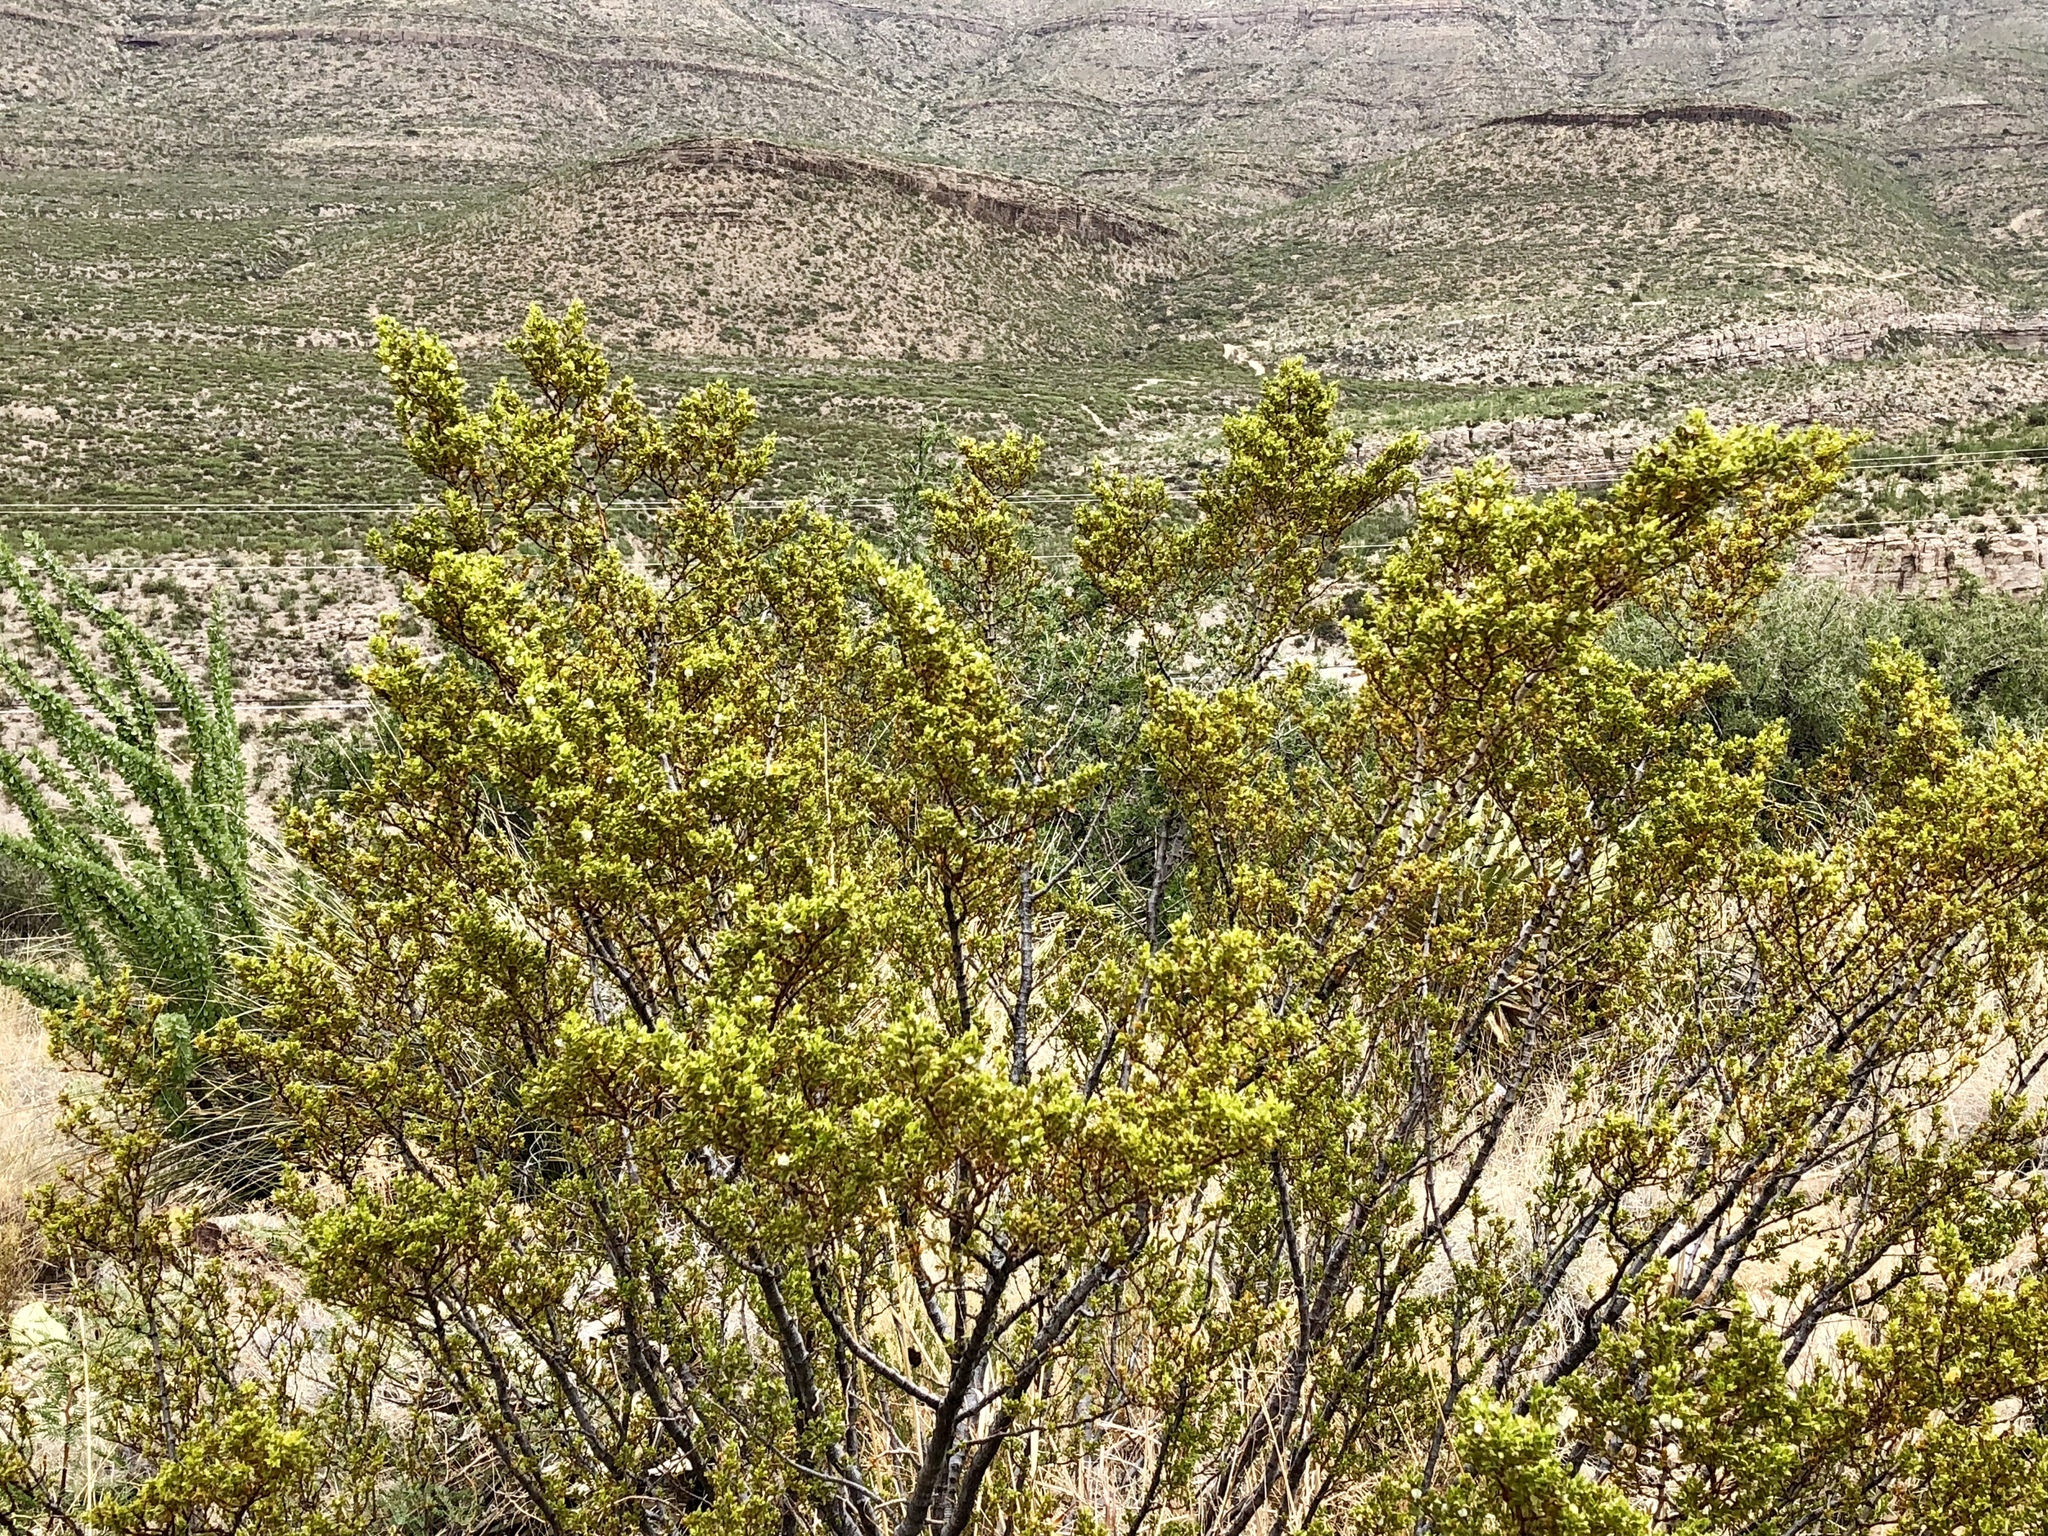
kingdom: Plantae
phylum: Tracheophyta
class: Magnoliopsida
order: Zygophyllales
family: Zygophyllaceae
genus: Larrea
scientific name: Larrea tridentata
